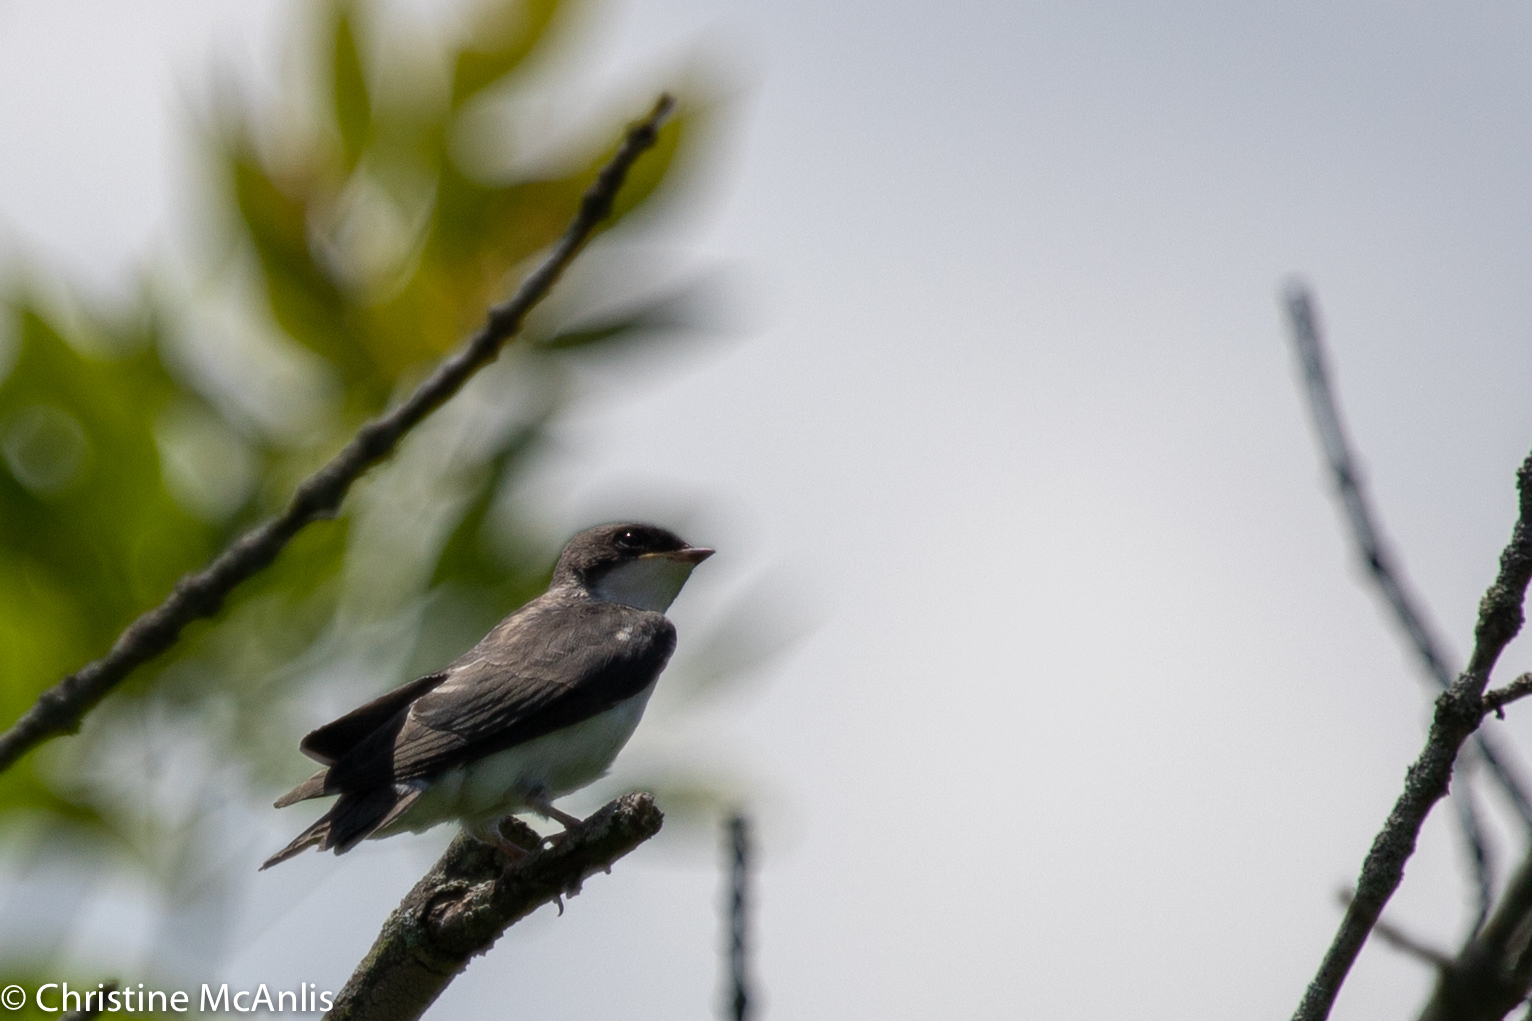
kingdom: Animalia
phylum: Chordata
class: Aves
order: Passeriformes
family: Hirundinidae
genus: Tachycineta
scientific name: Tachycineta bicolor
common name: Tree swallow
